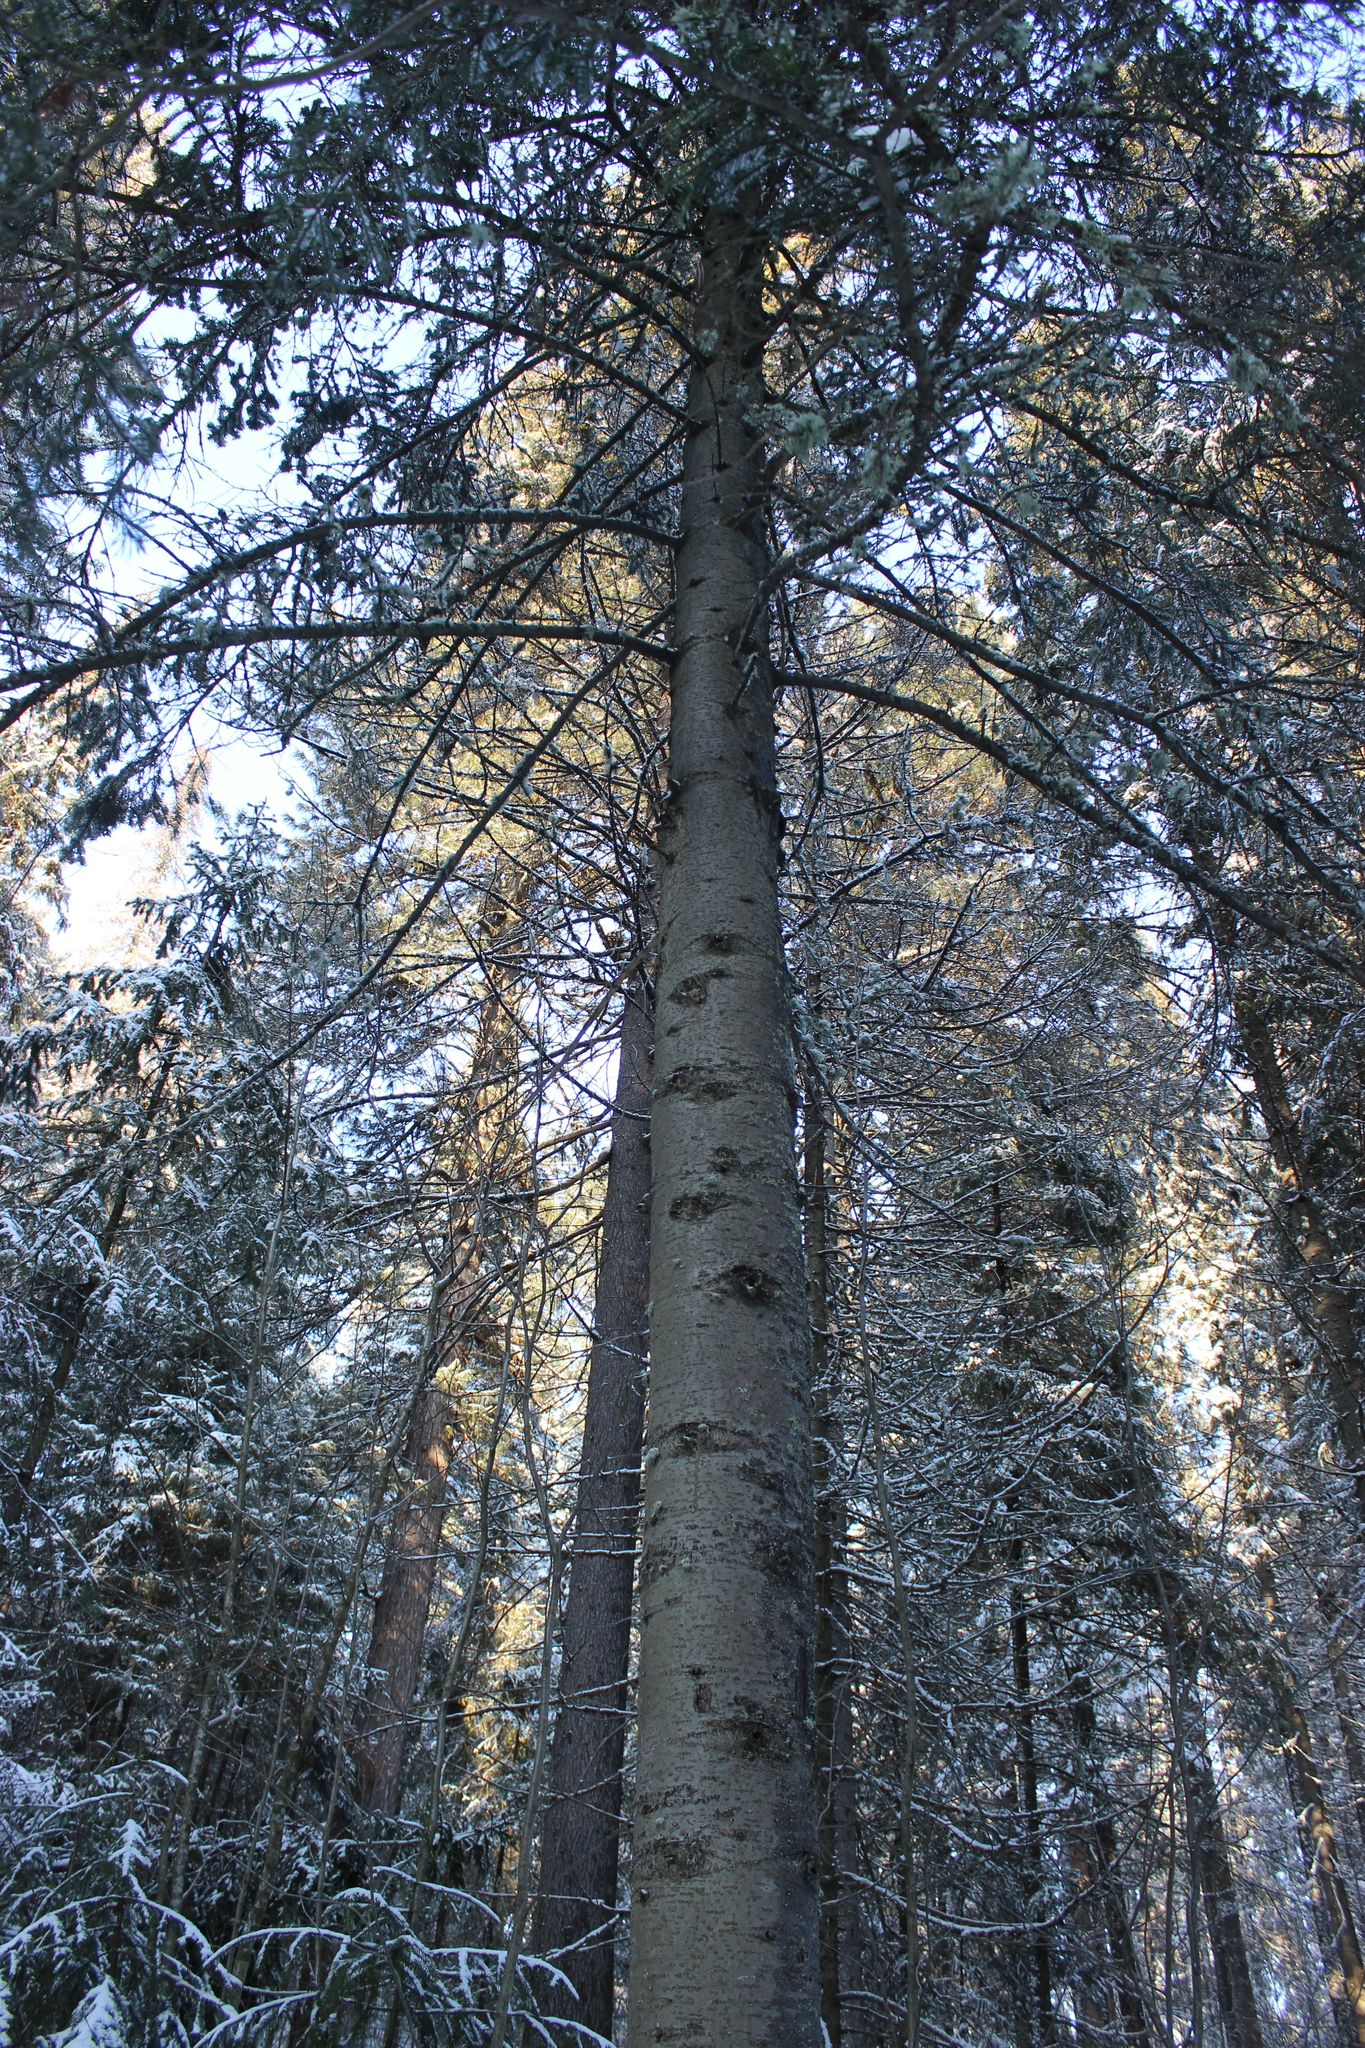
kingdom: Plantae
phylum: Tracheophyta
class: Pinopsida
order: Pinales
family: Pinaceae
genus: Abies
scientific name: Abies sibirica
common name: Siberian fir
